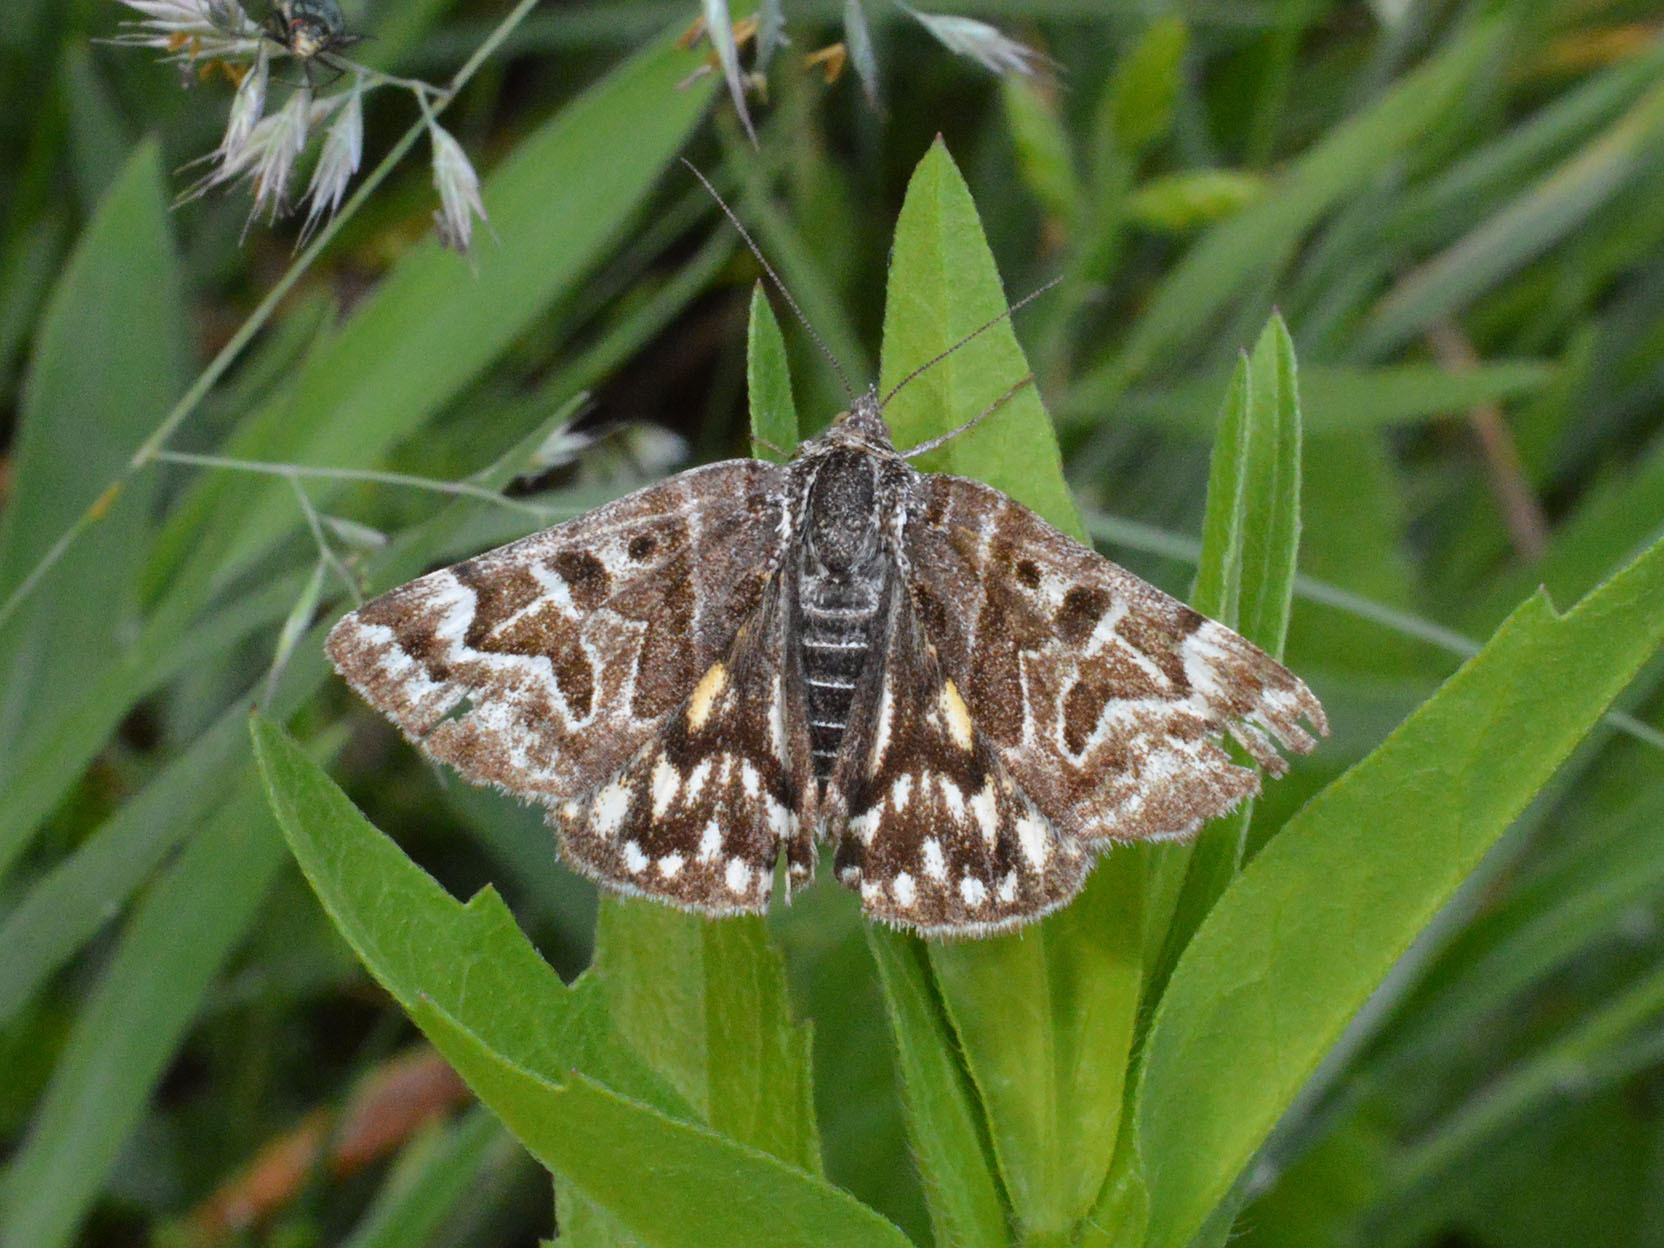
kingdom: Animalia
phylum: Arthropoda
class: Insecta
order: Lepidoptera
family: Erebidae
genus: Callistege
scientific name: Callistege mi
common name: Mother shipton
